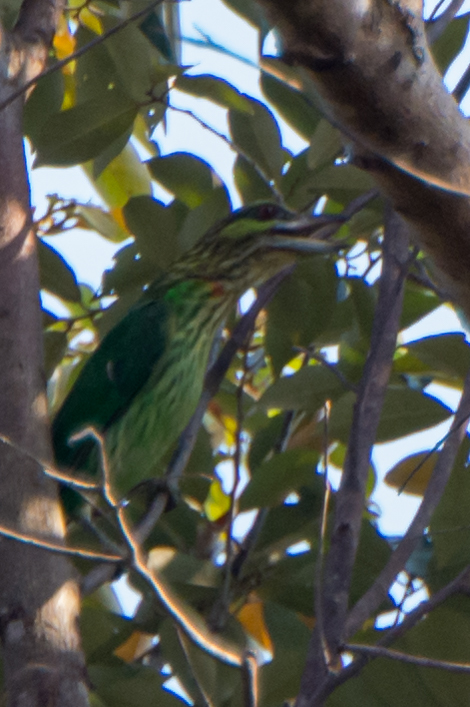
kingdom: Animalia
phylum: Chordata
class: Aves
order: Piciformes
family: Megalaimidae
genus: Psilopogon
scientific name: Psilopogon faiostrictus
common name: Green-eared barbet
